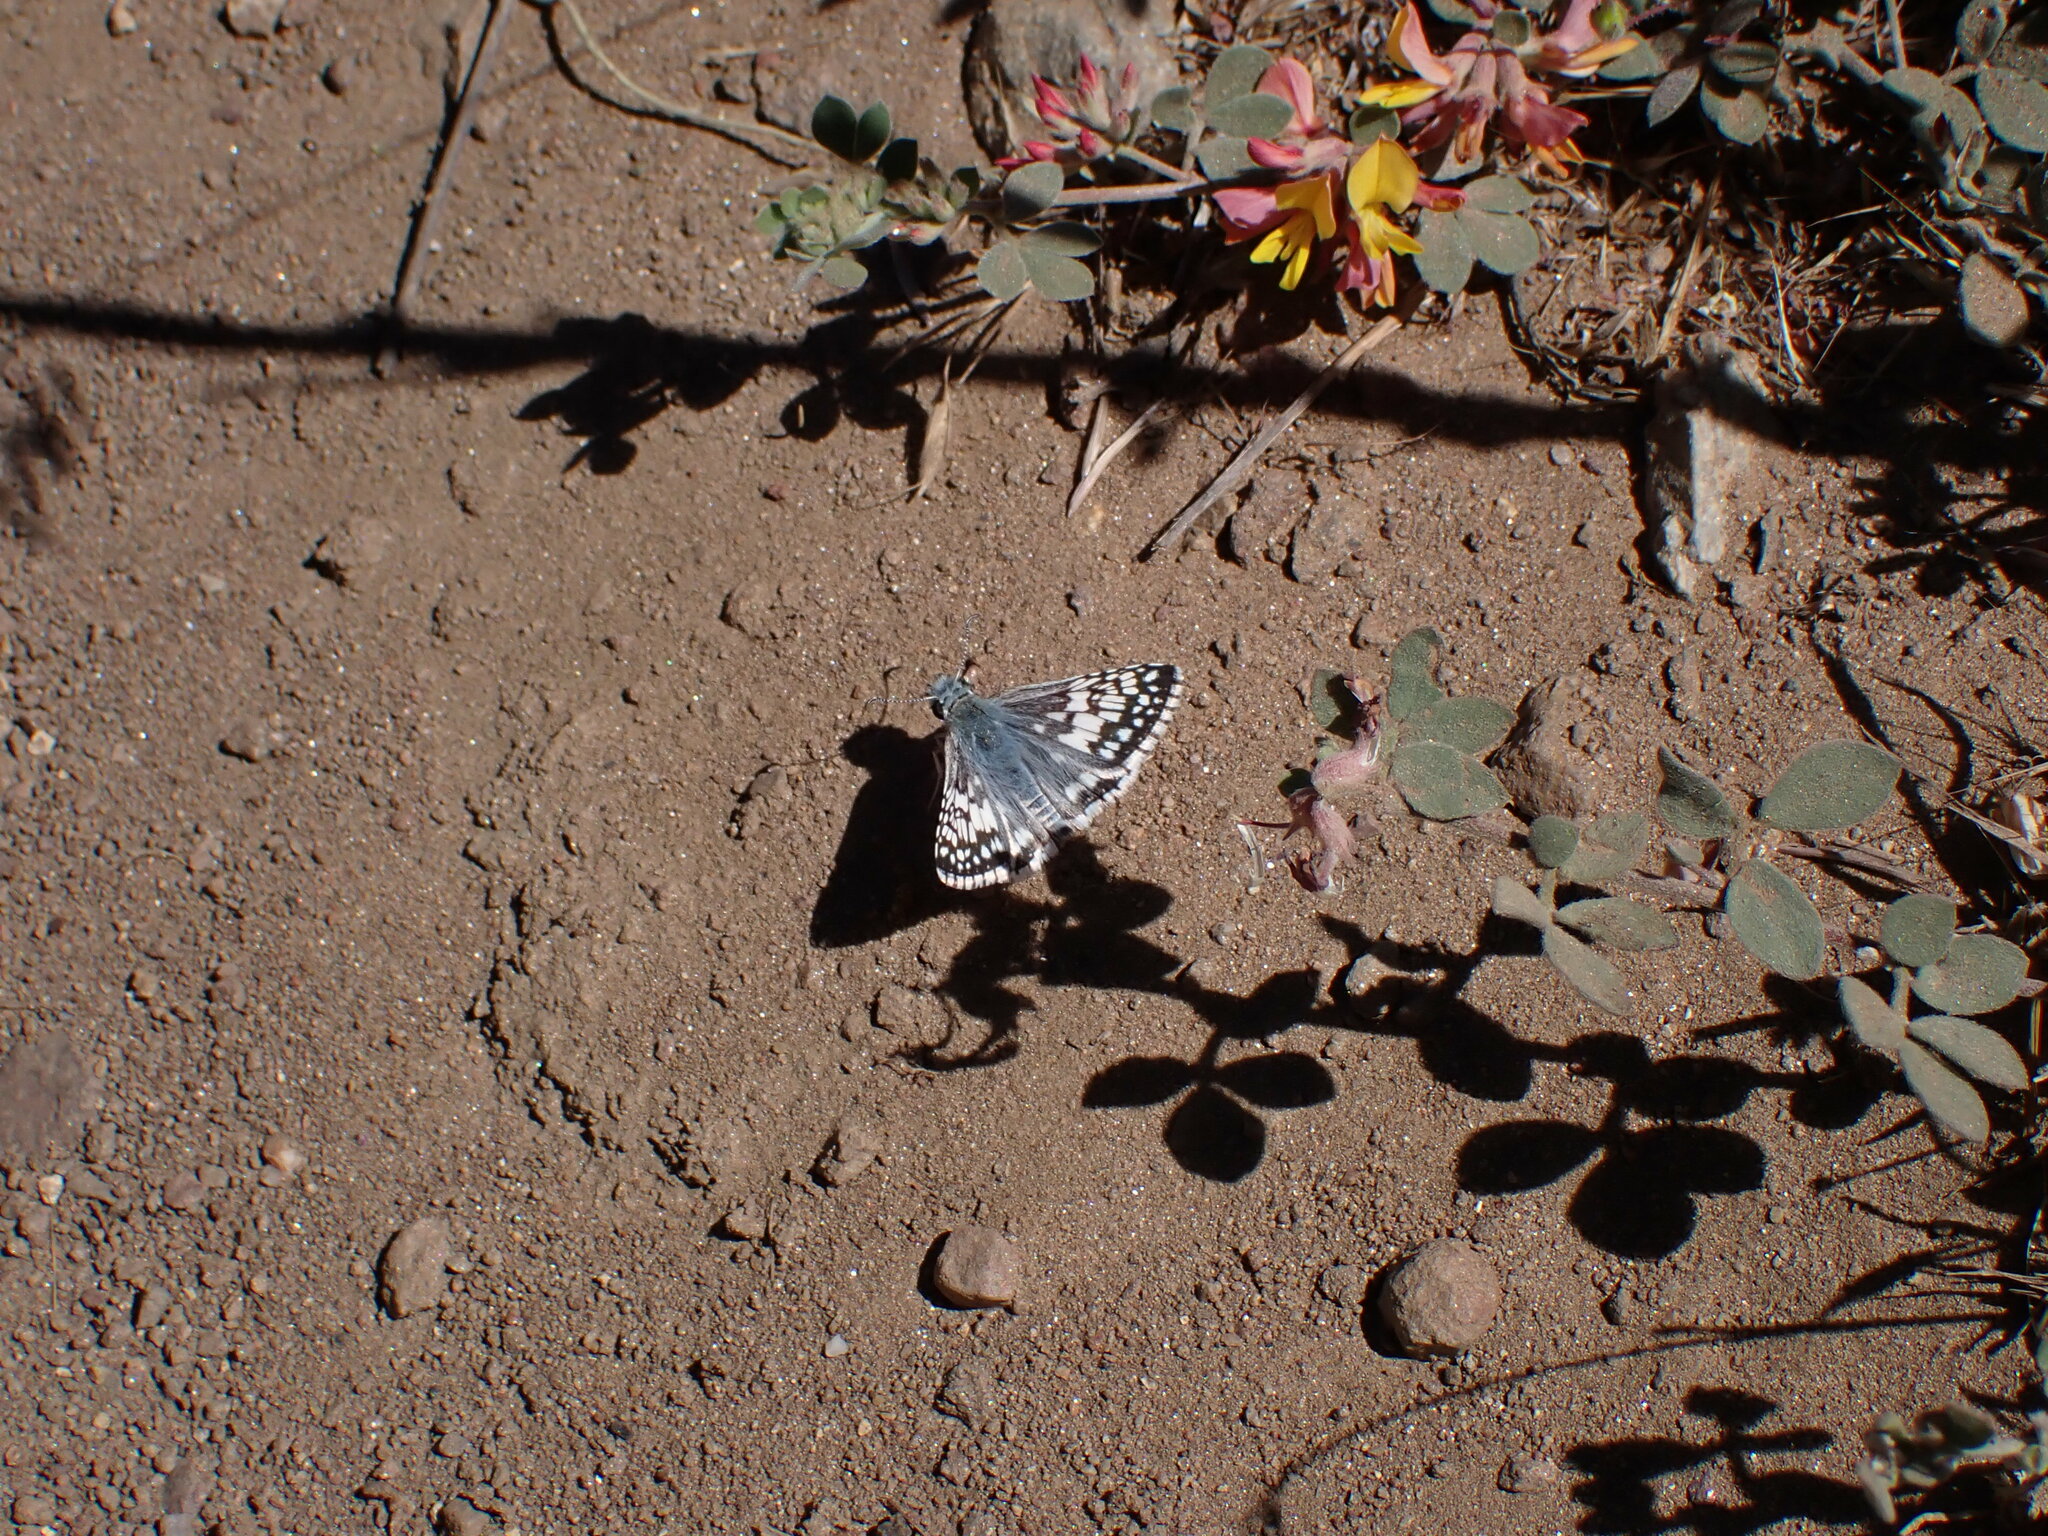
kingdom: Animalia
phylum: Arthropoda
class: Insecta
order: Lepidoptera
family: Hesperiidae
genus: Burnsius
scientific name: Burnsius albezens
